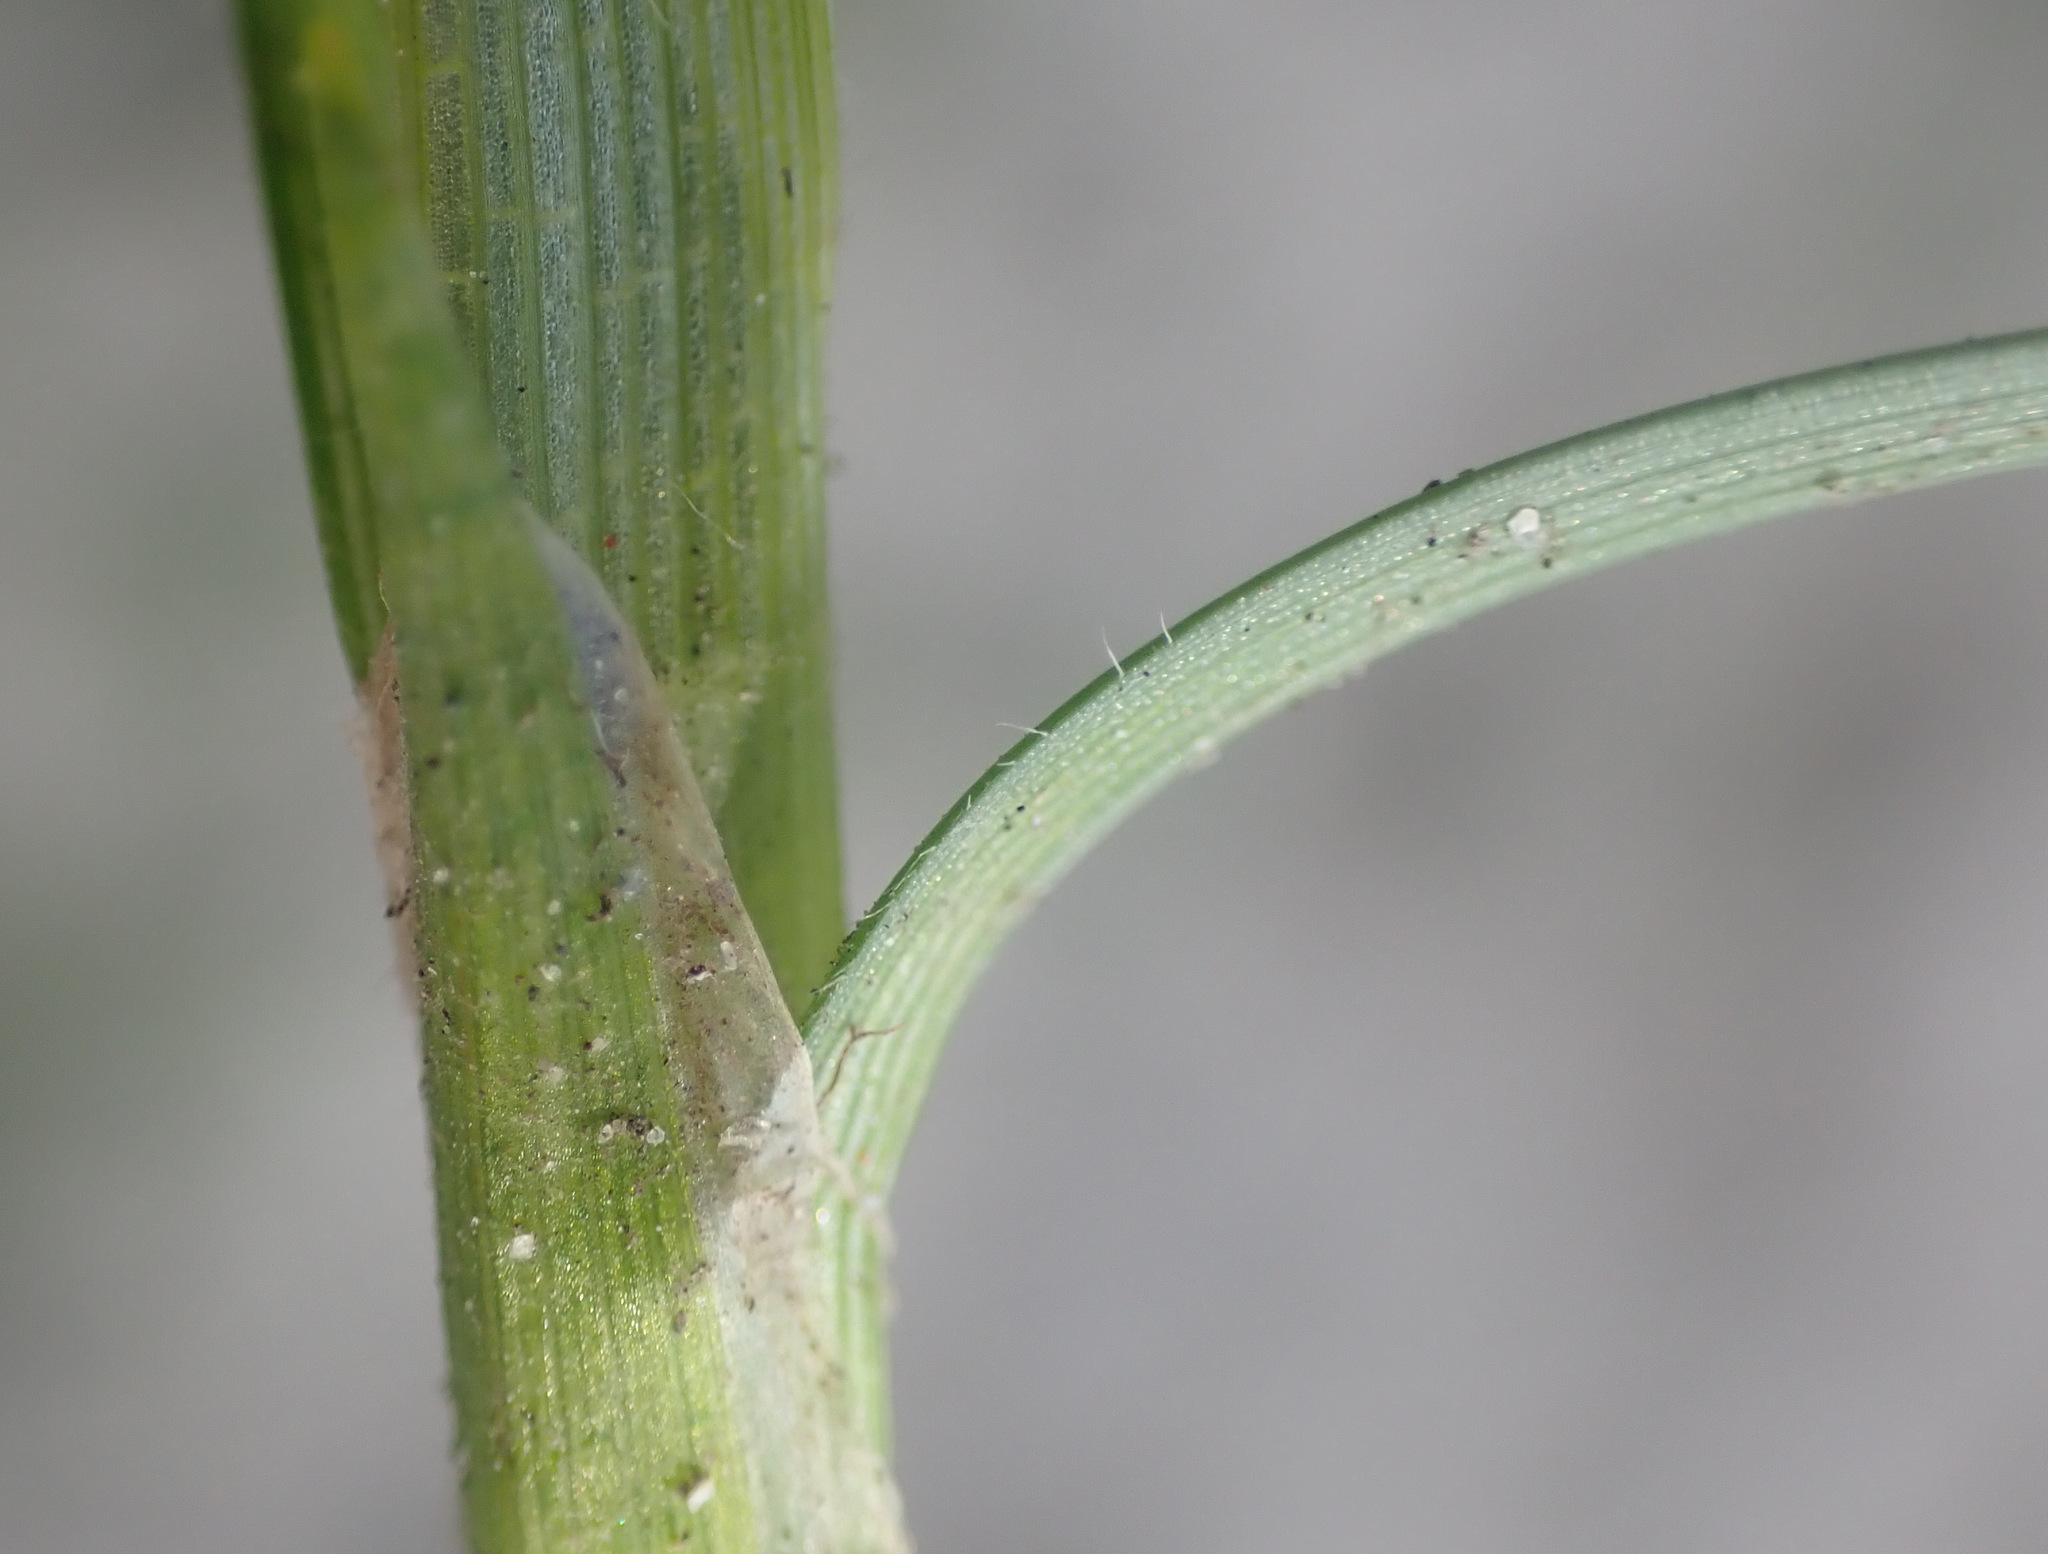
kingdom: Plantae
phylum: Tracheophyta
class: Liliopsida
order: Poales
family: Cyperaceae
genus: Carex
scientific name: Carex hirta
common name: Hairy sedge
